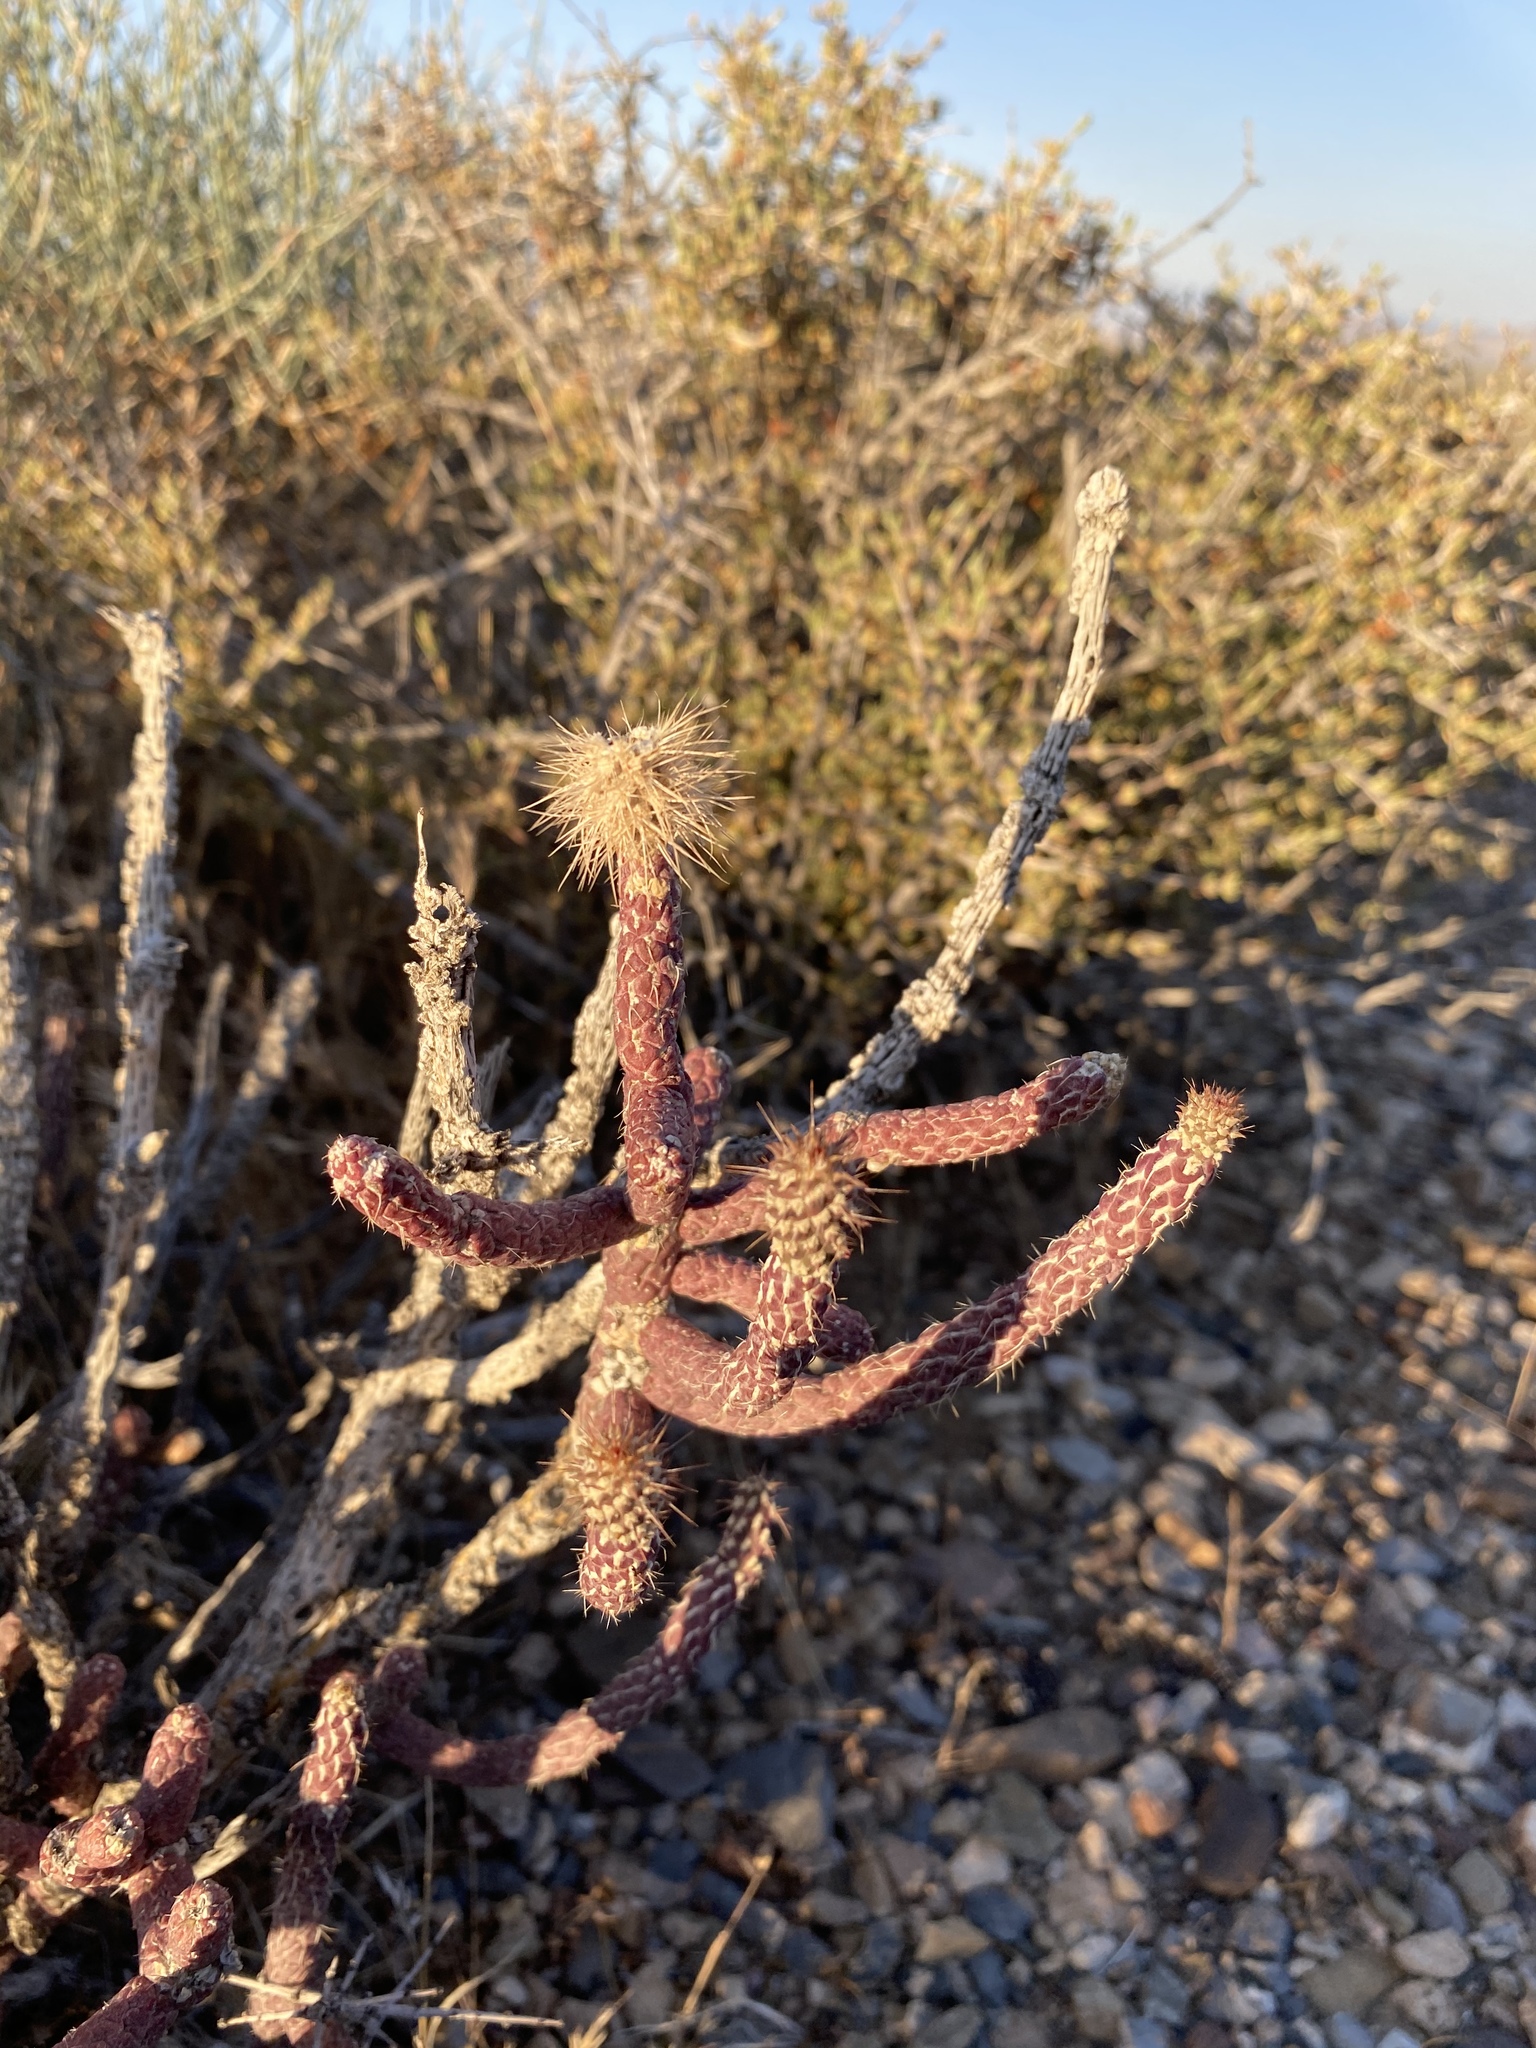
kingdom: Plantae
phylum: Tracheophyta
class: Magnoliopsida
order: Caryophyllales
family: Cactaceae
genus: Cylindropuntia
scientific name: Cylindropuntia ramosissima
